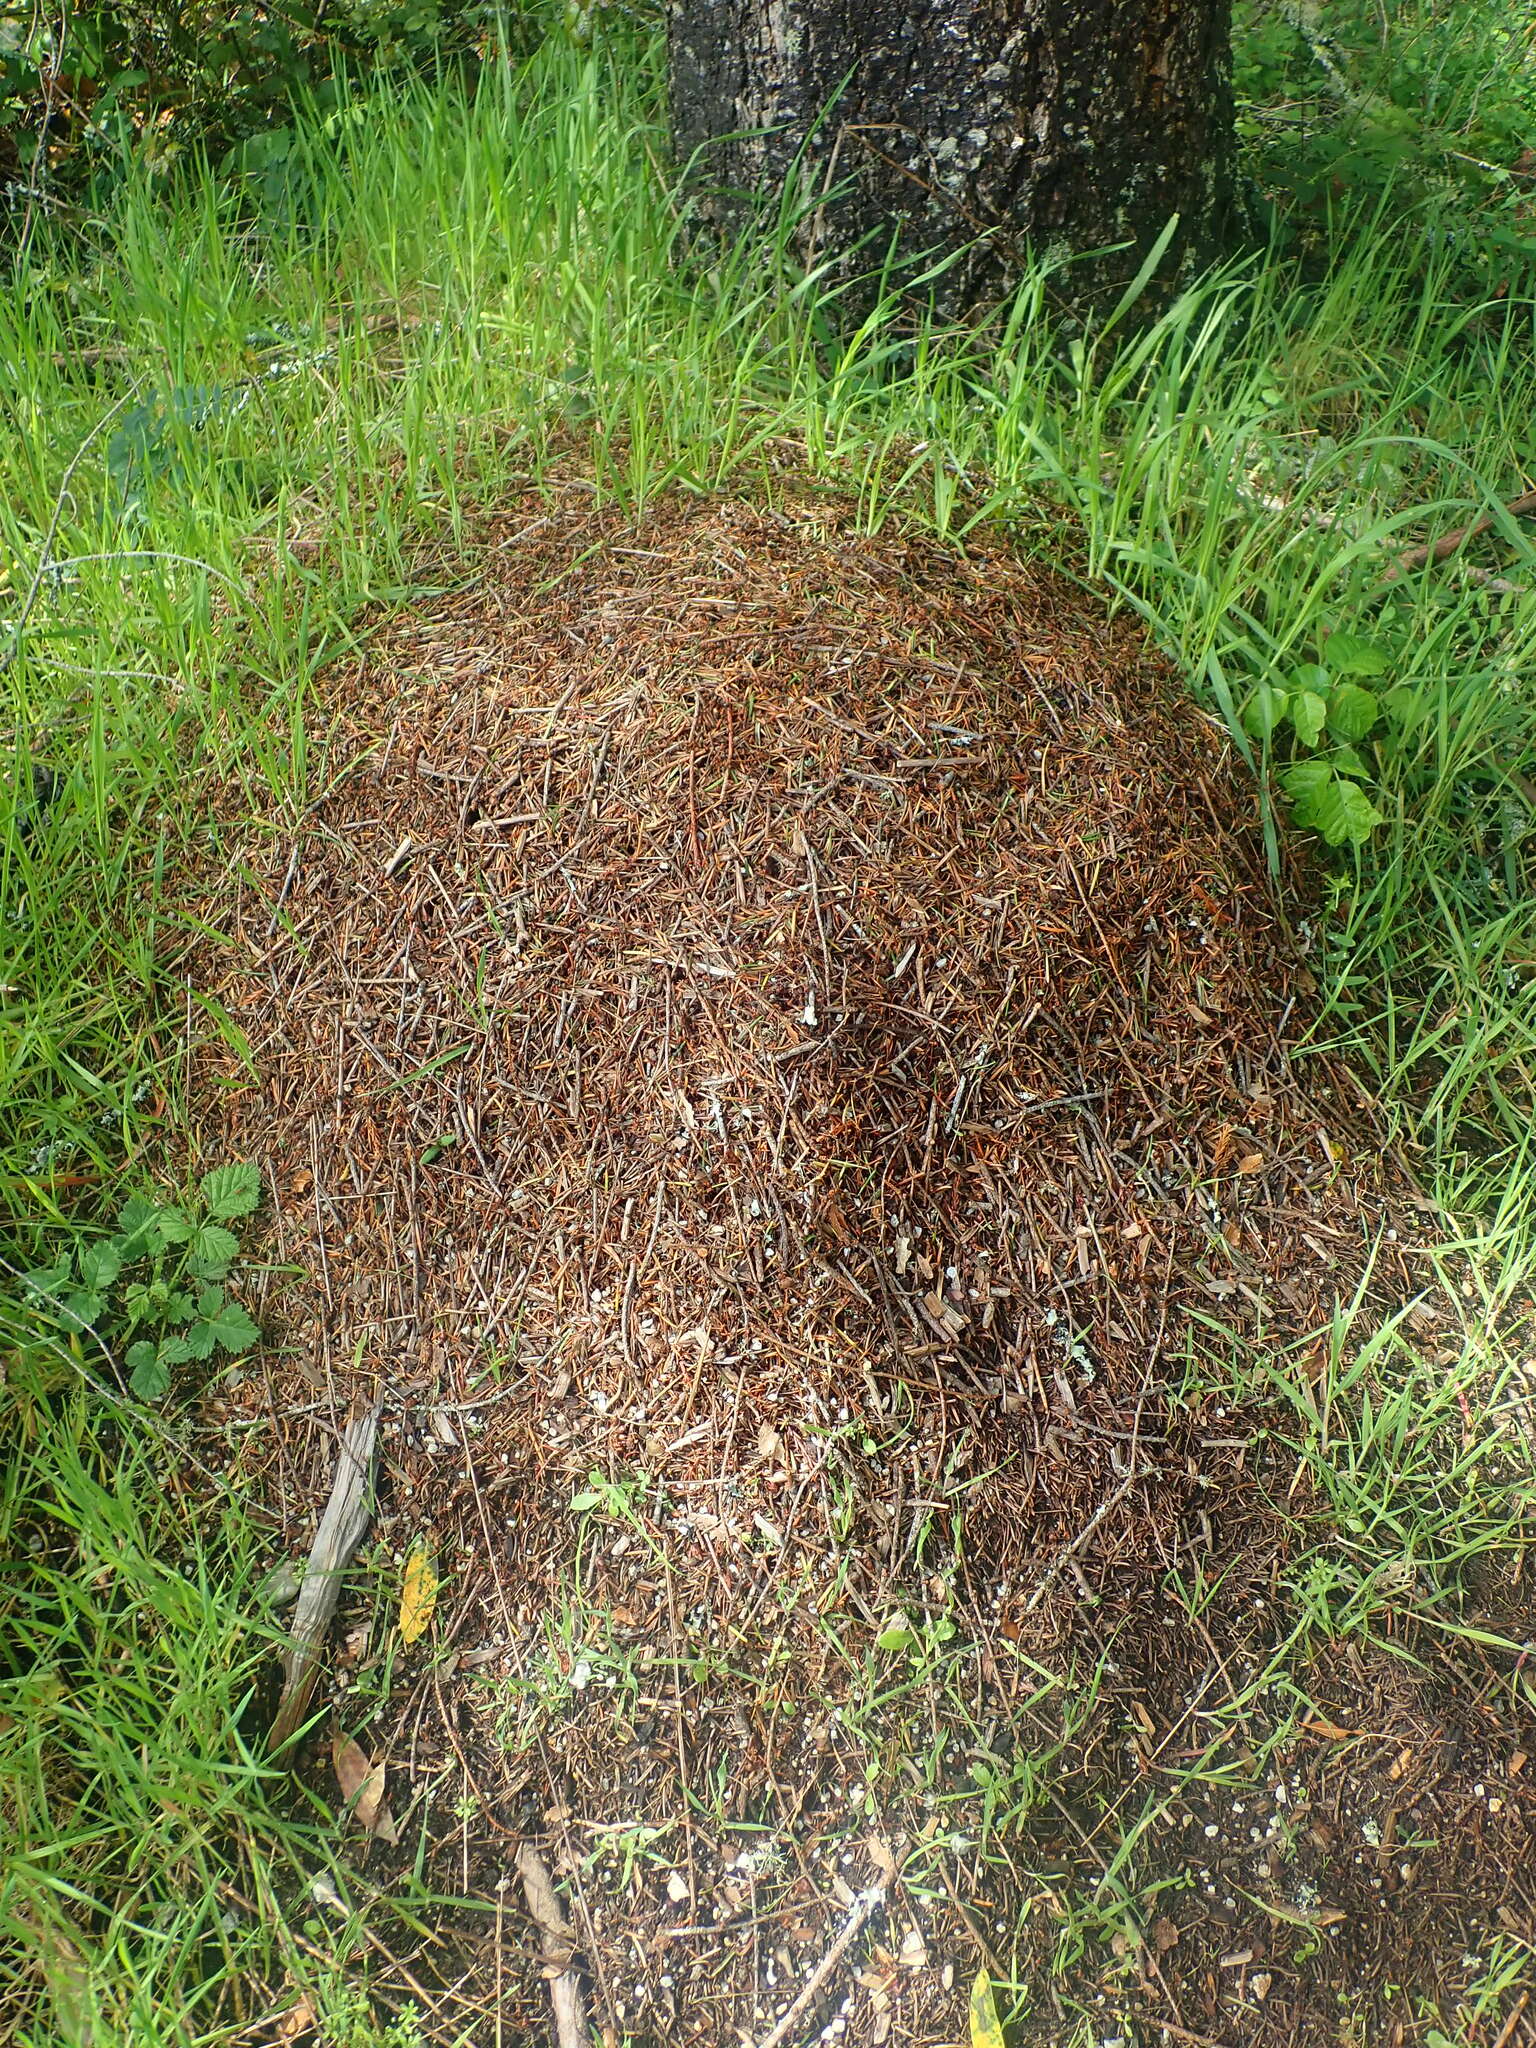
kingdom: Animalia
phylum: Arthropoda
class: Insecta
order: Hymenoptera
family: Formicidae
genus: Formica
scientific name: Formica integroides
